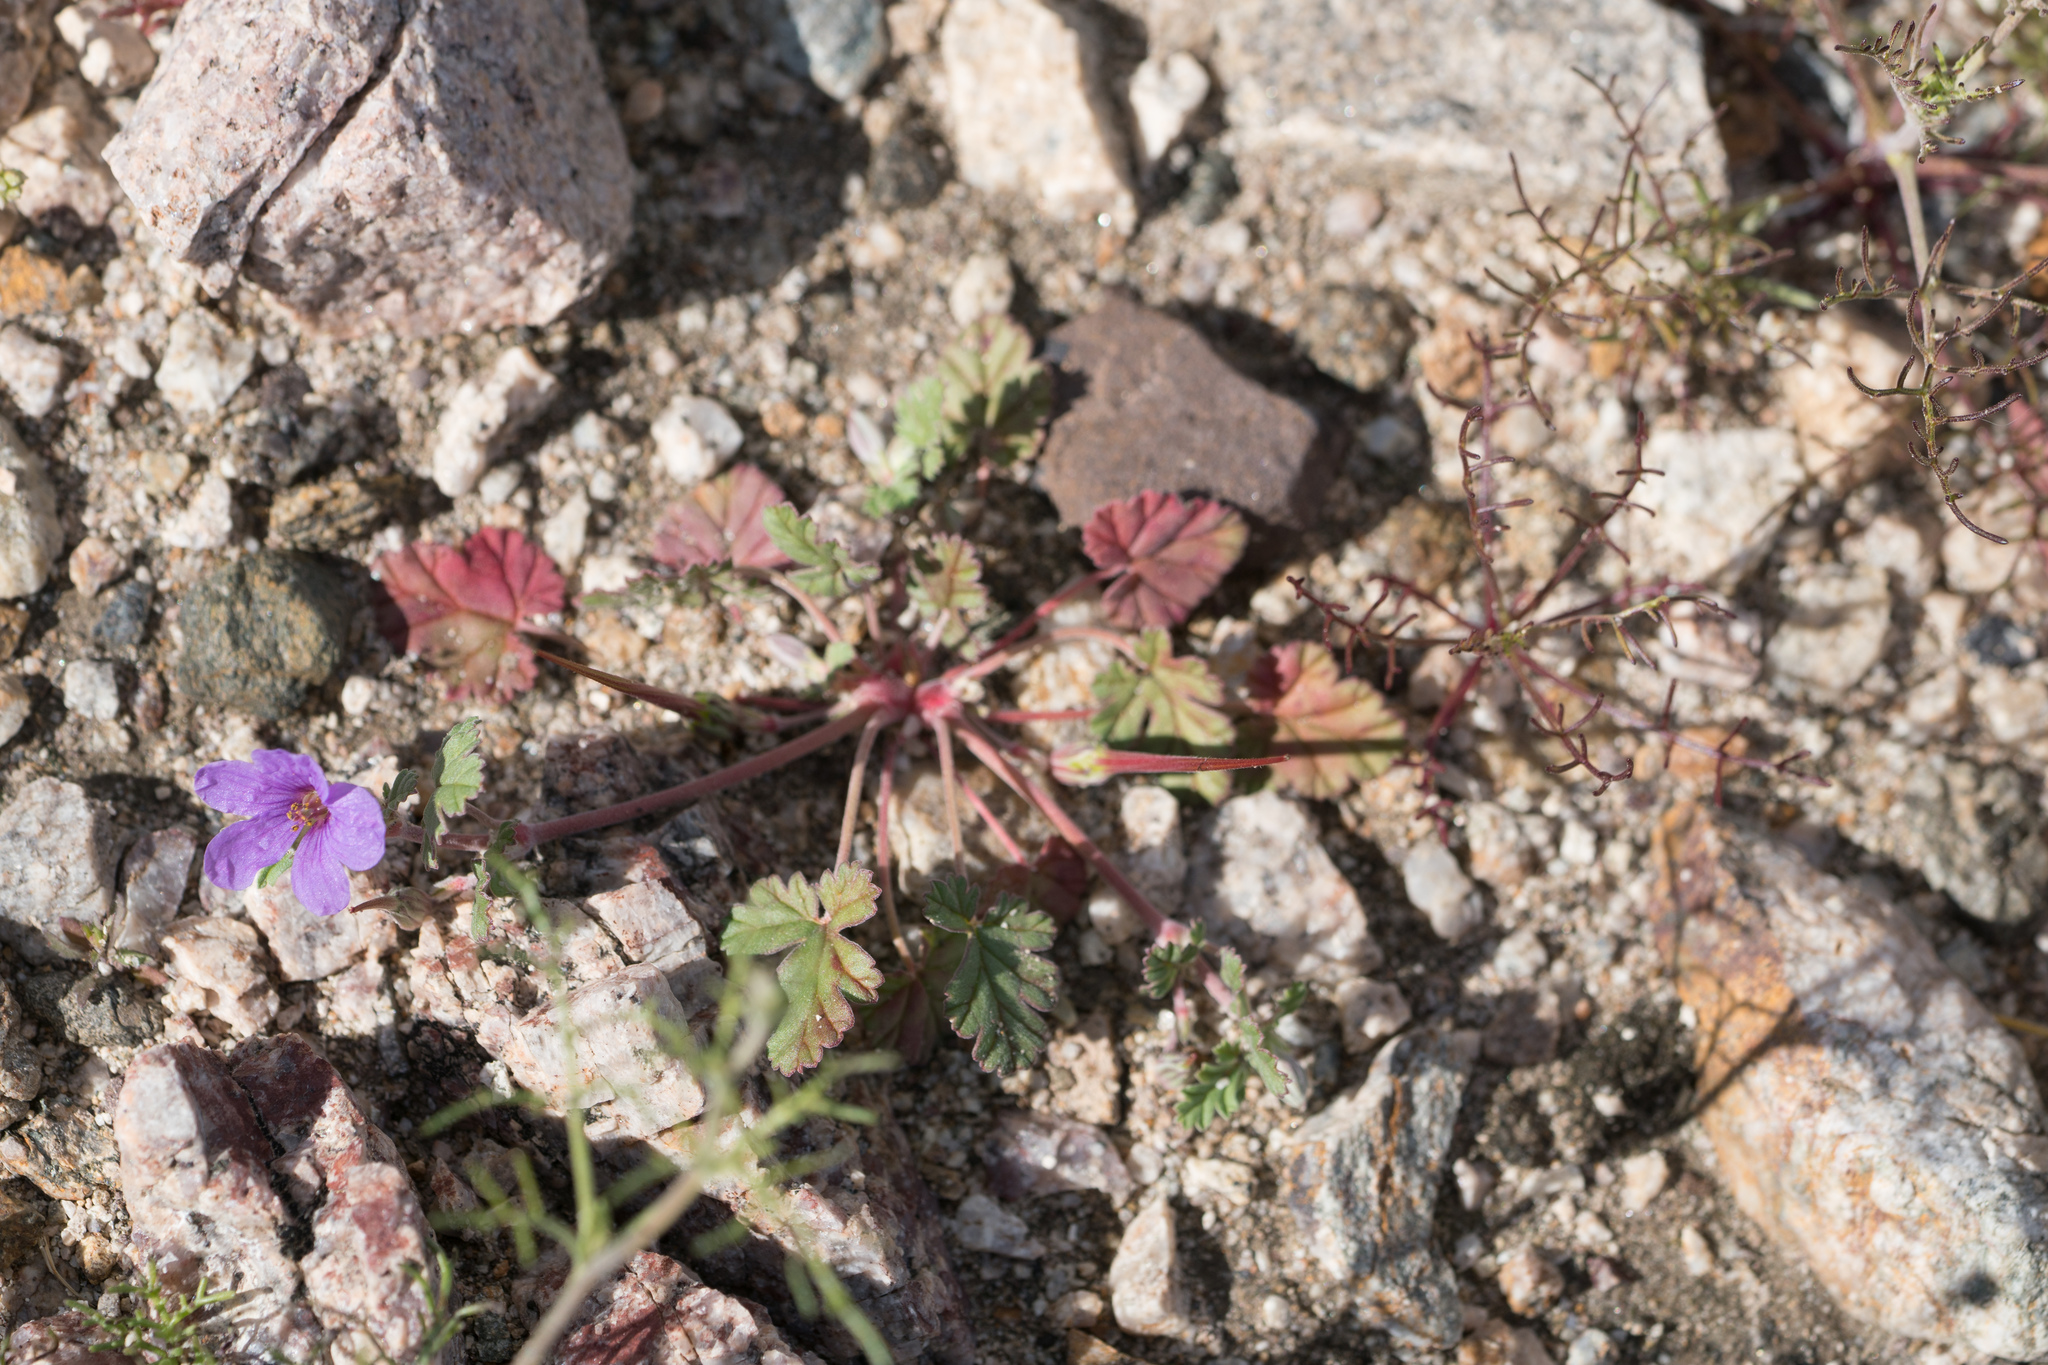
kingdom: Plantae
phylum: Tracheophyta
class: Magnoliopsida
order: Geraniales
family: Geraniaceae
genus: Erodium
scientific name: Erodium texanum
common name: Texas stork's-bill
